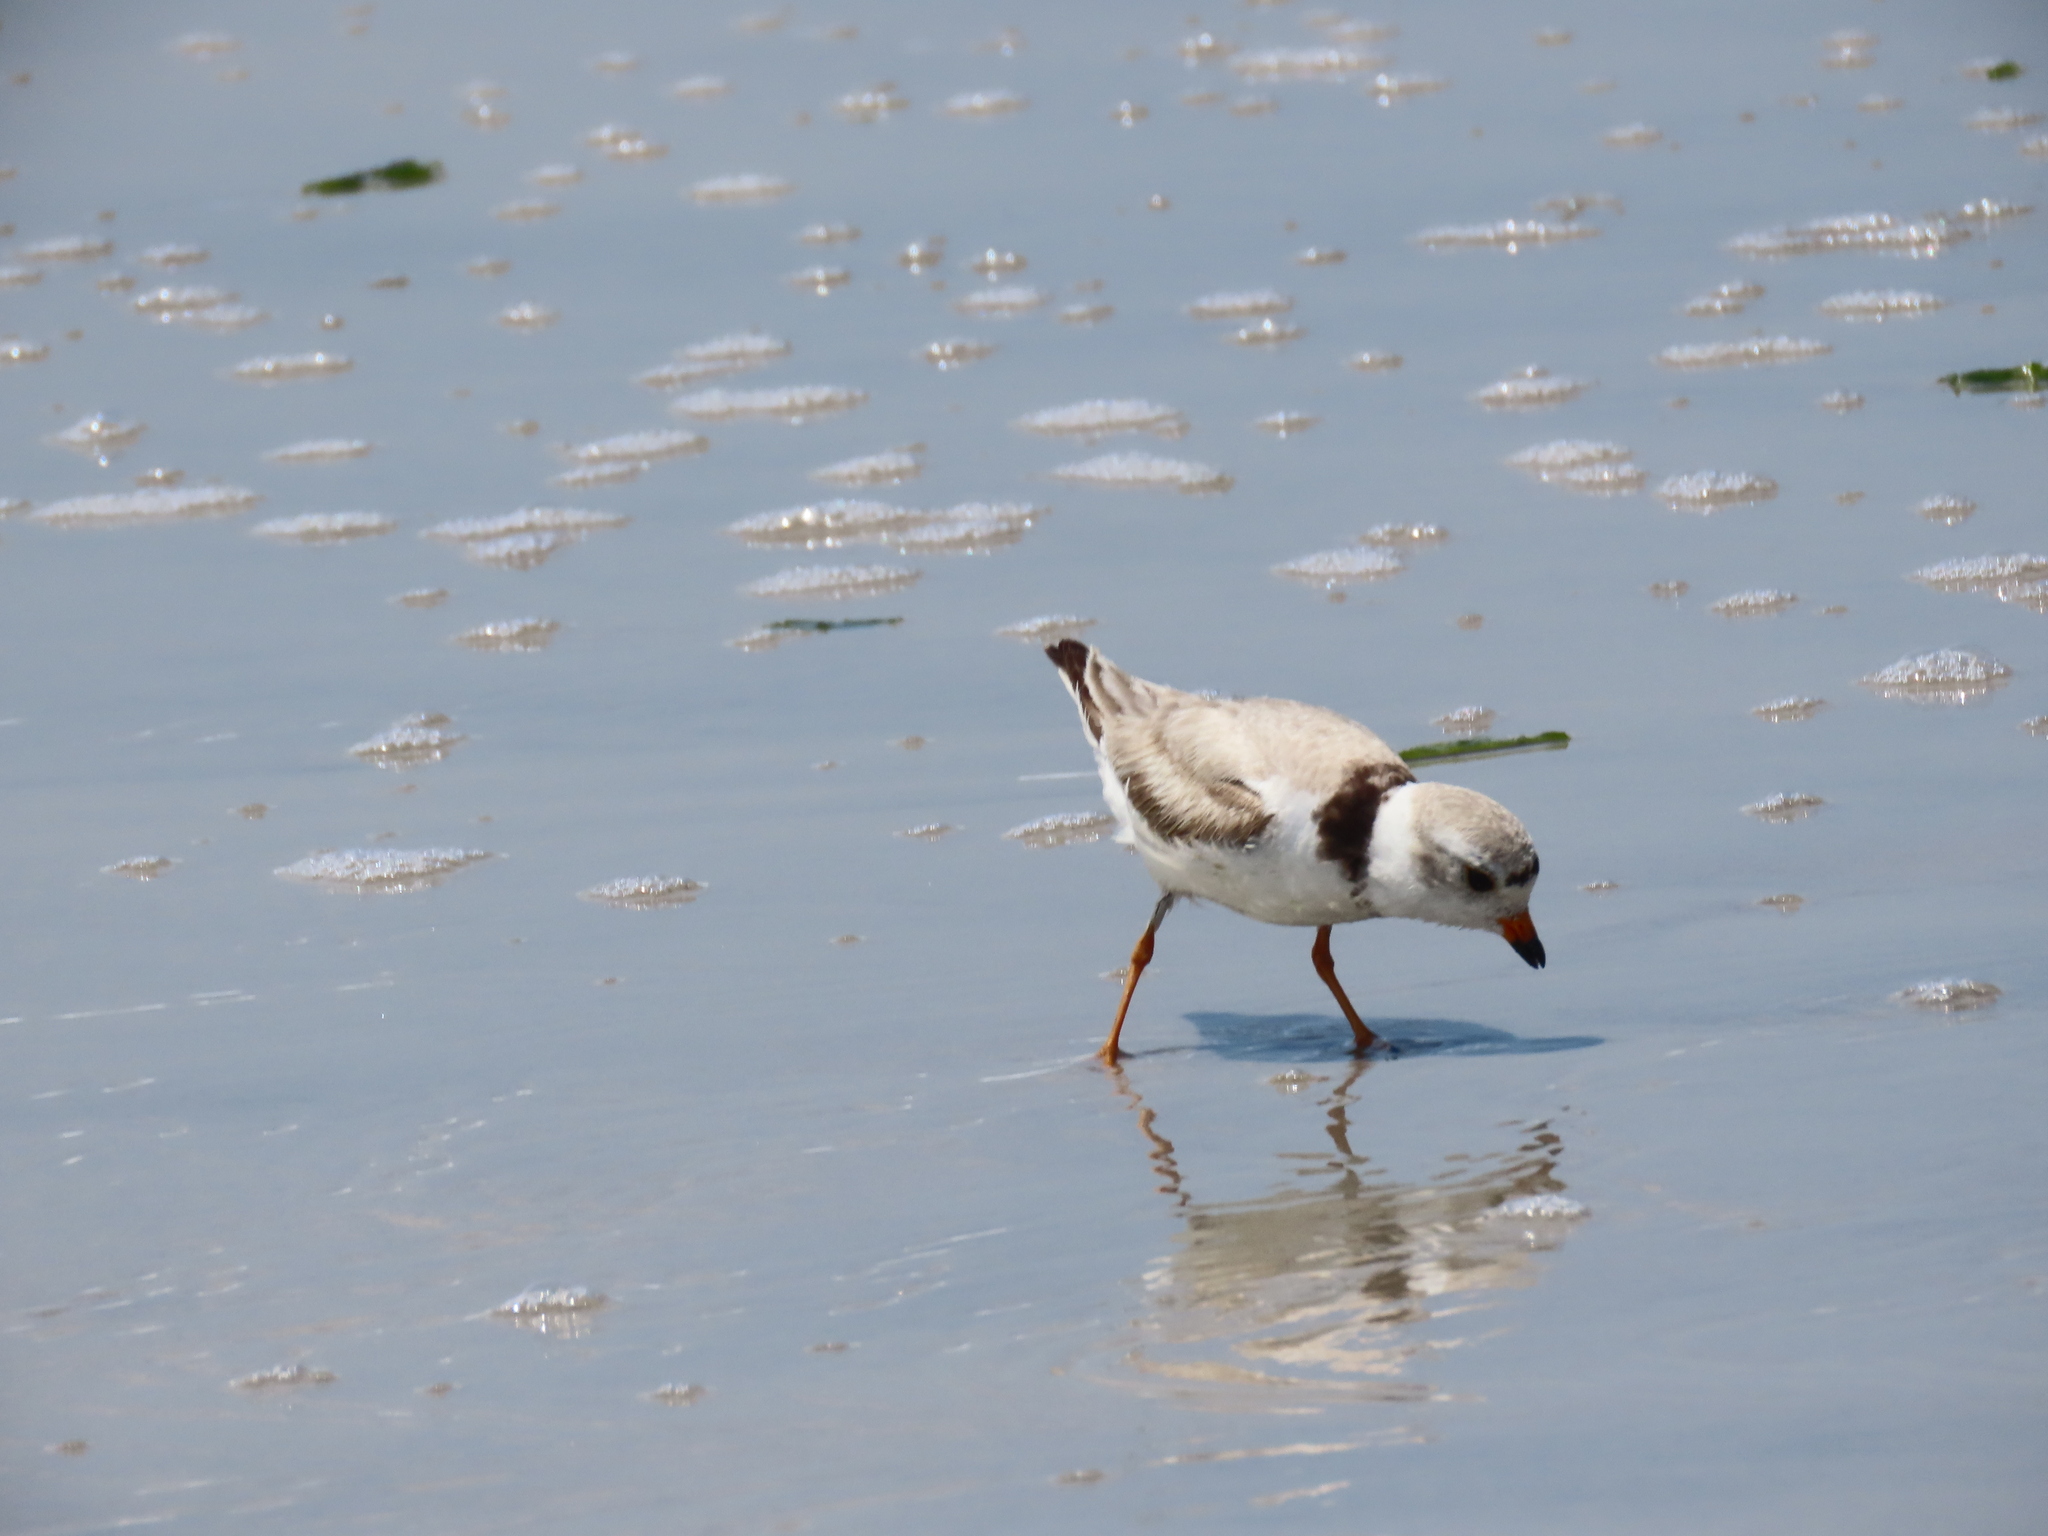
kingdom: Animalia
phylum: Chordata
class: Aves
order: Charadriiformes
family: Charadriidae
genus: Charadrius
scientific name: Charadrius melodus
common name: Piping plover
